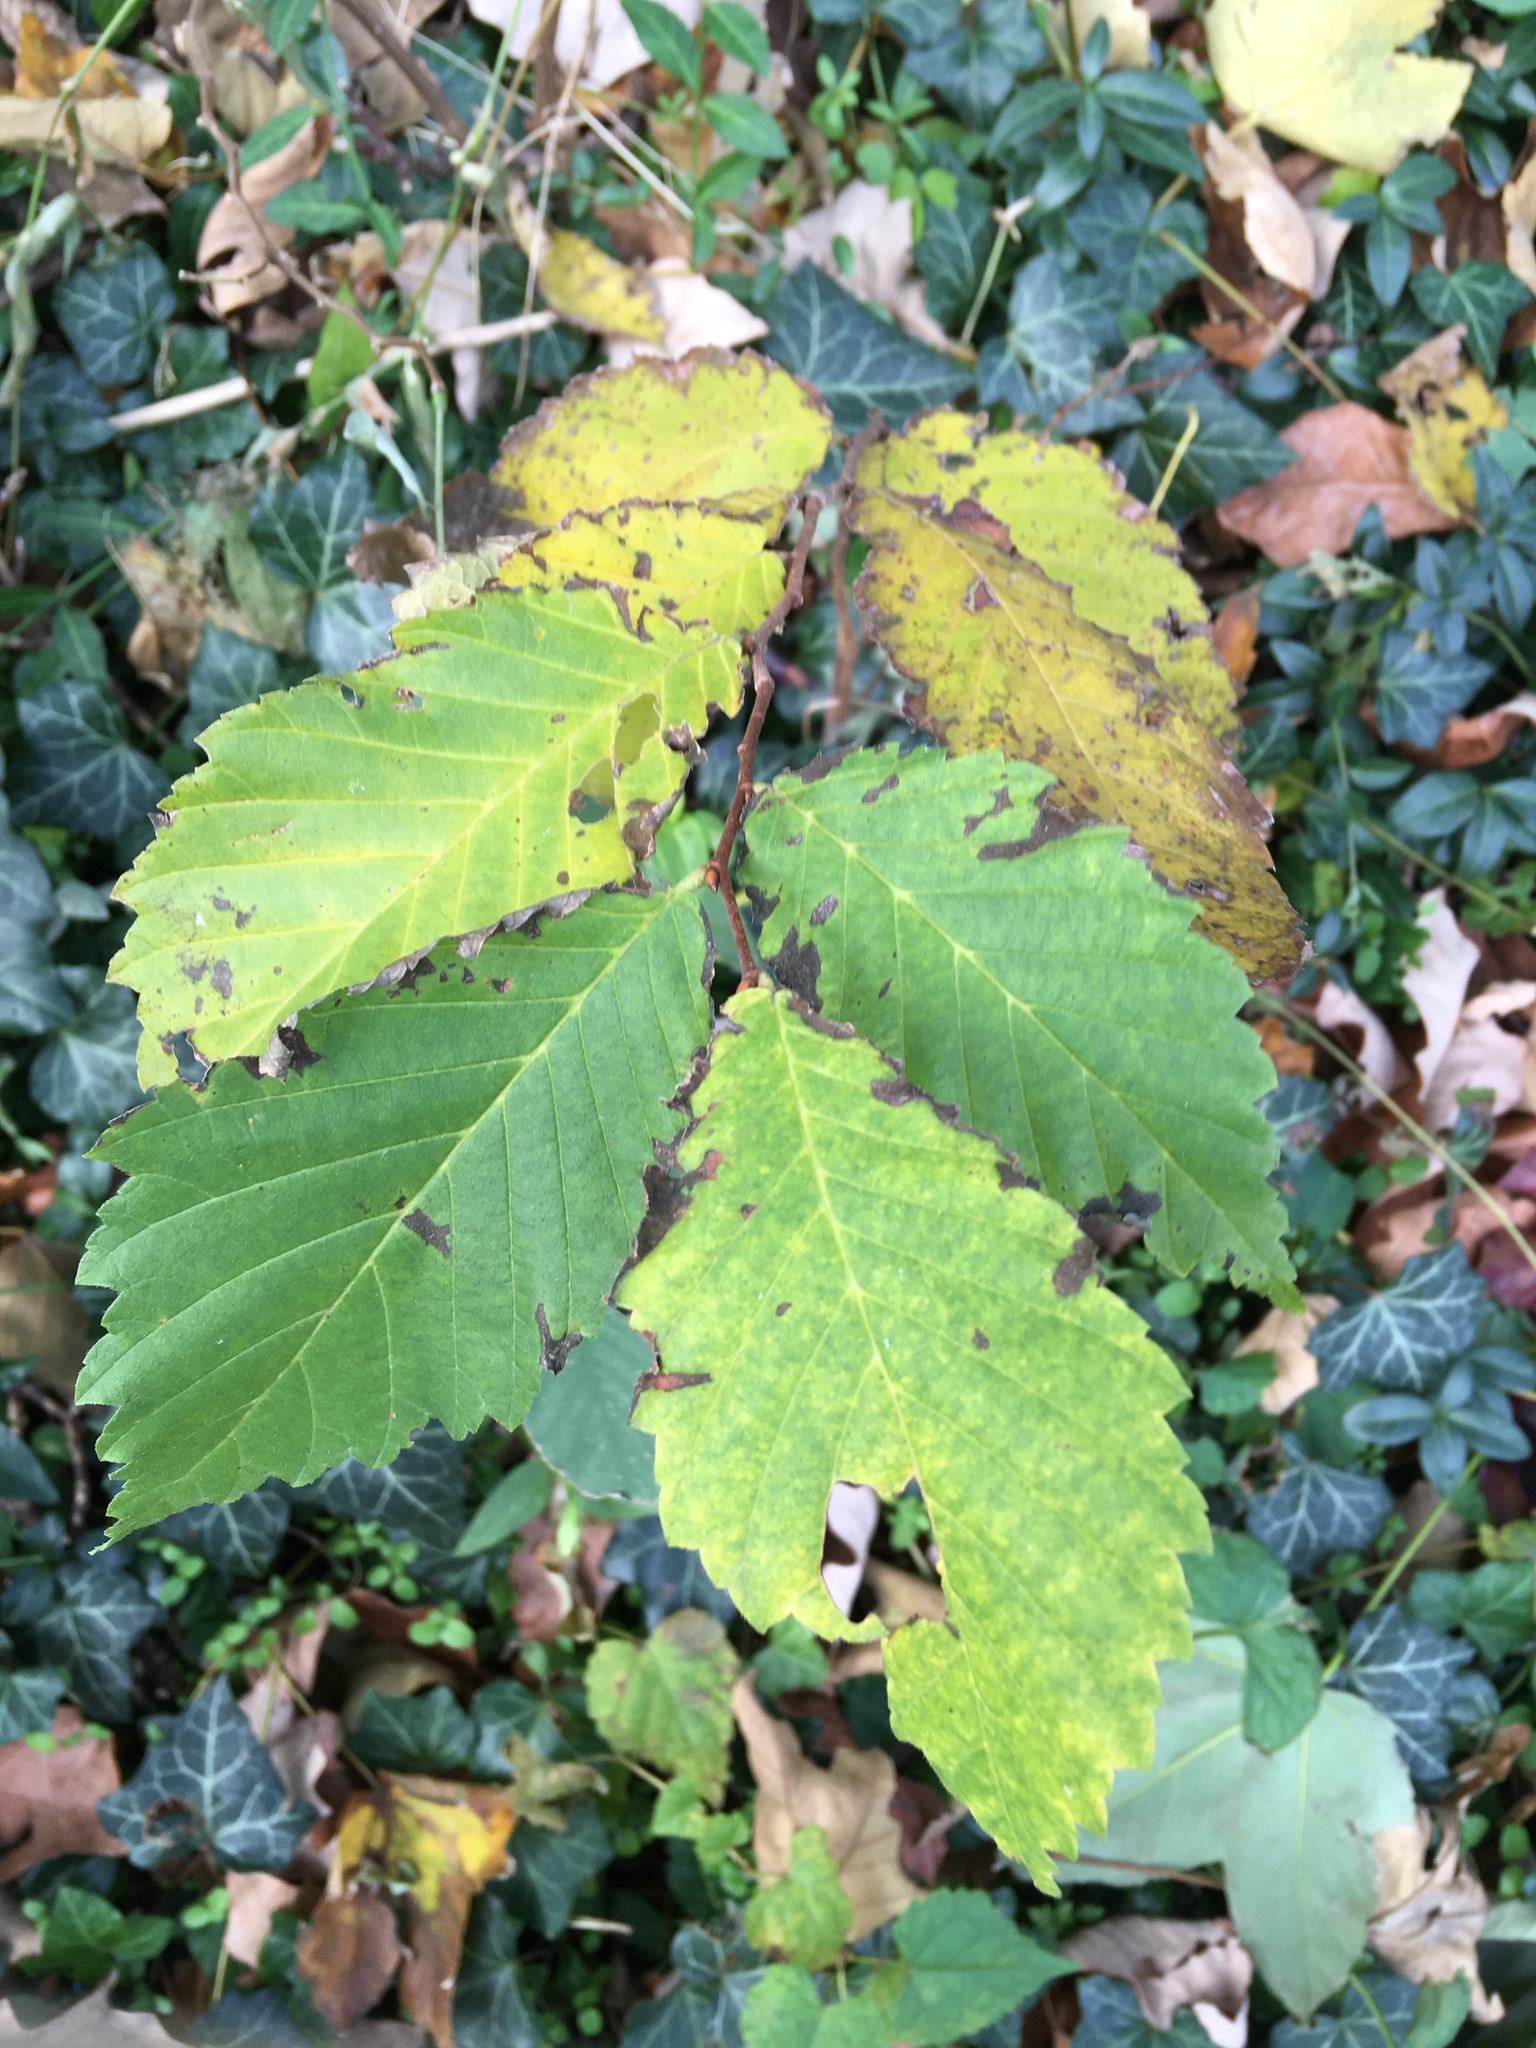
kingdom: Plantae
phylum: Tracheophyta
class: Magnoliopsida
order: Rosales
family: Ulmaceae
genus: Ulmus
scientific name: Ulmus americana
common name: American elm
